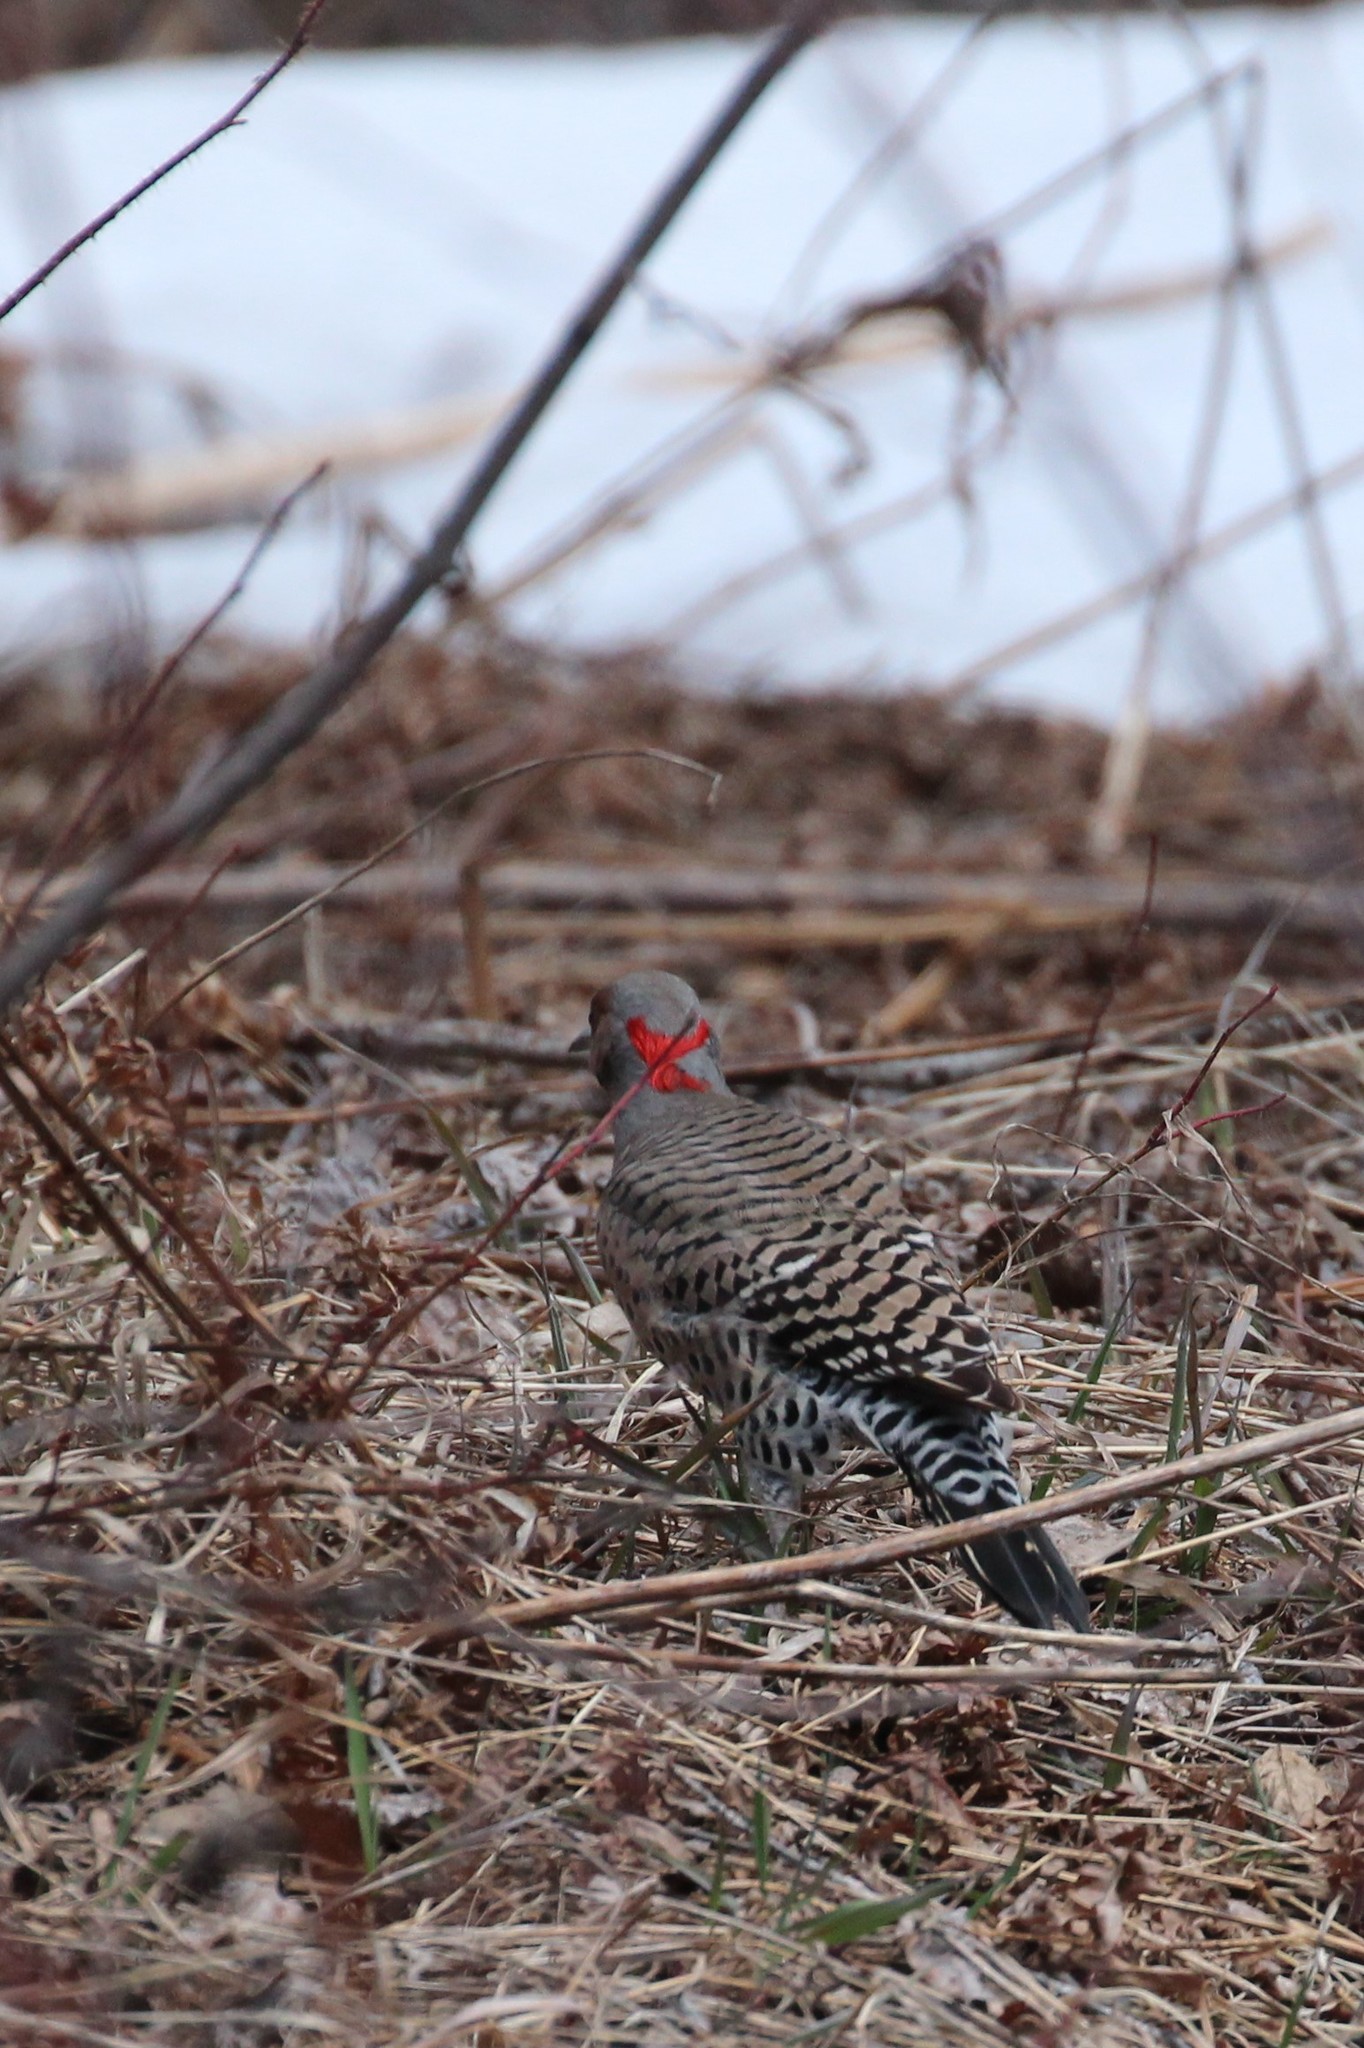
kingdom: Animalia
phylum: Chordata
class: Aves
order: Piciformes
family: Picidae
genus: Colaptes
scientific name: Colaptes auratus
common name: Northern flicker
